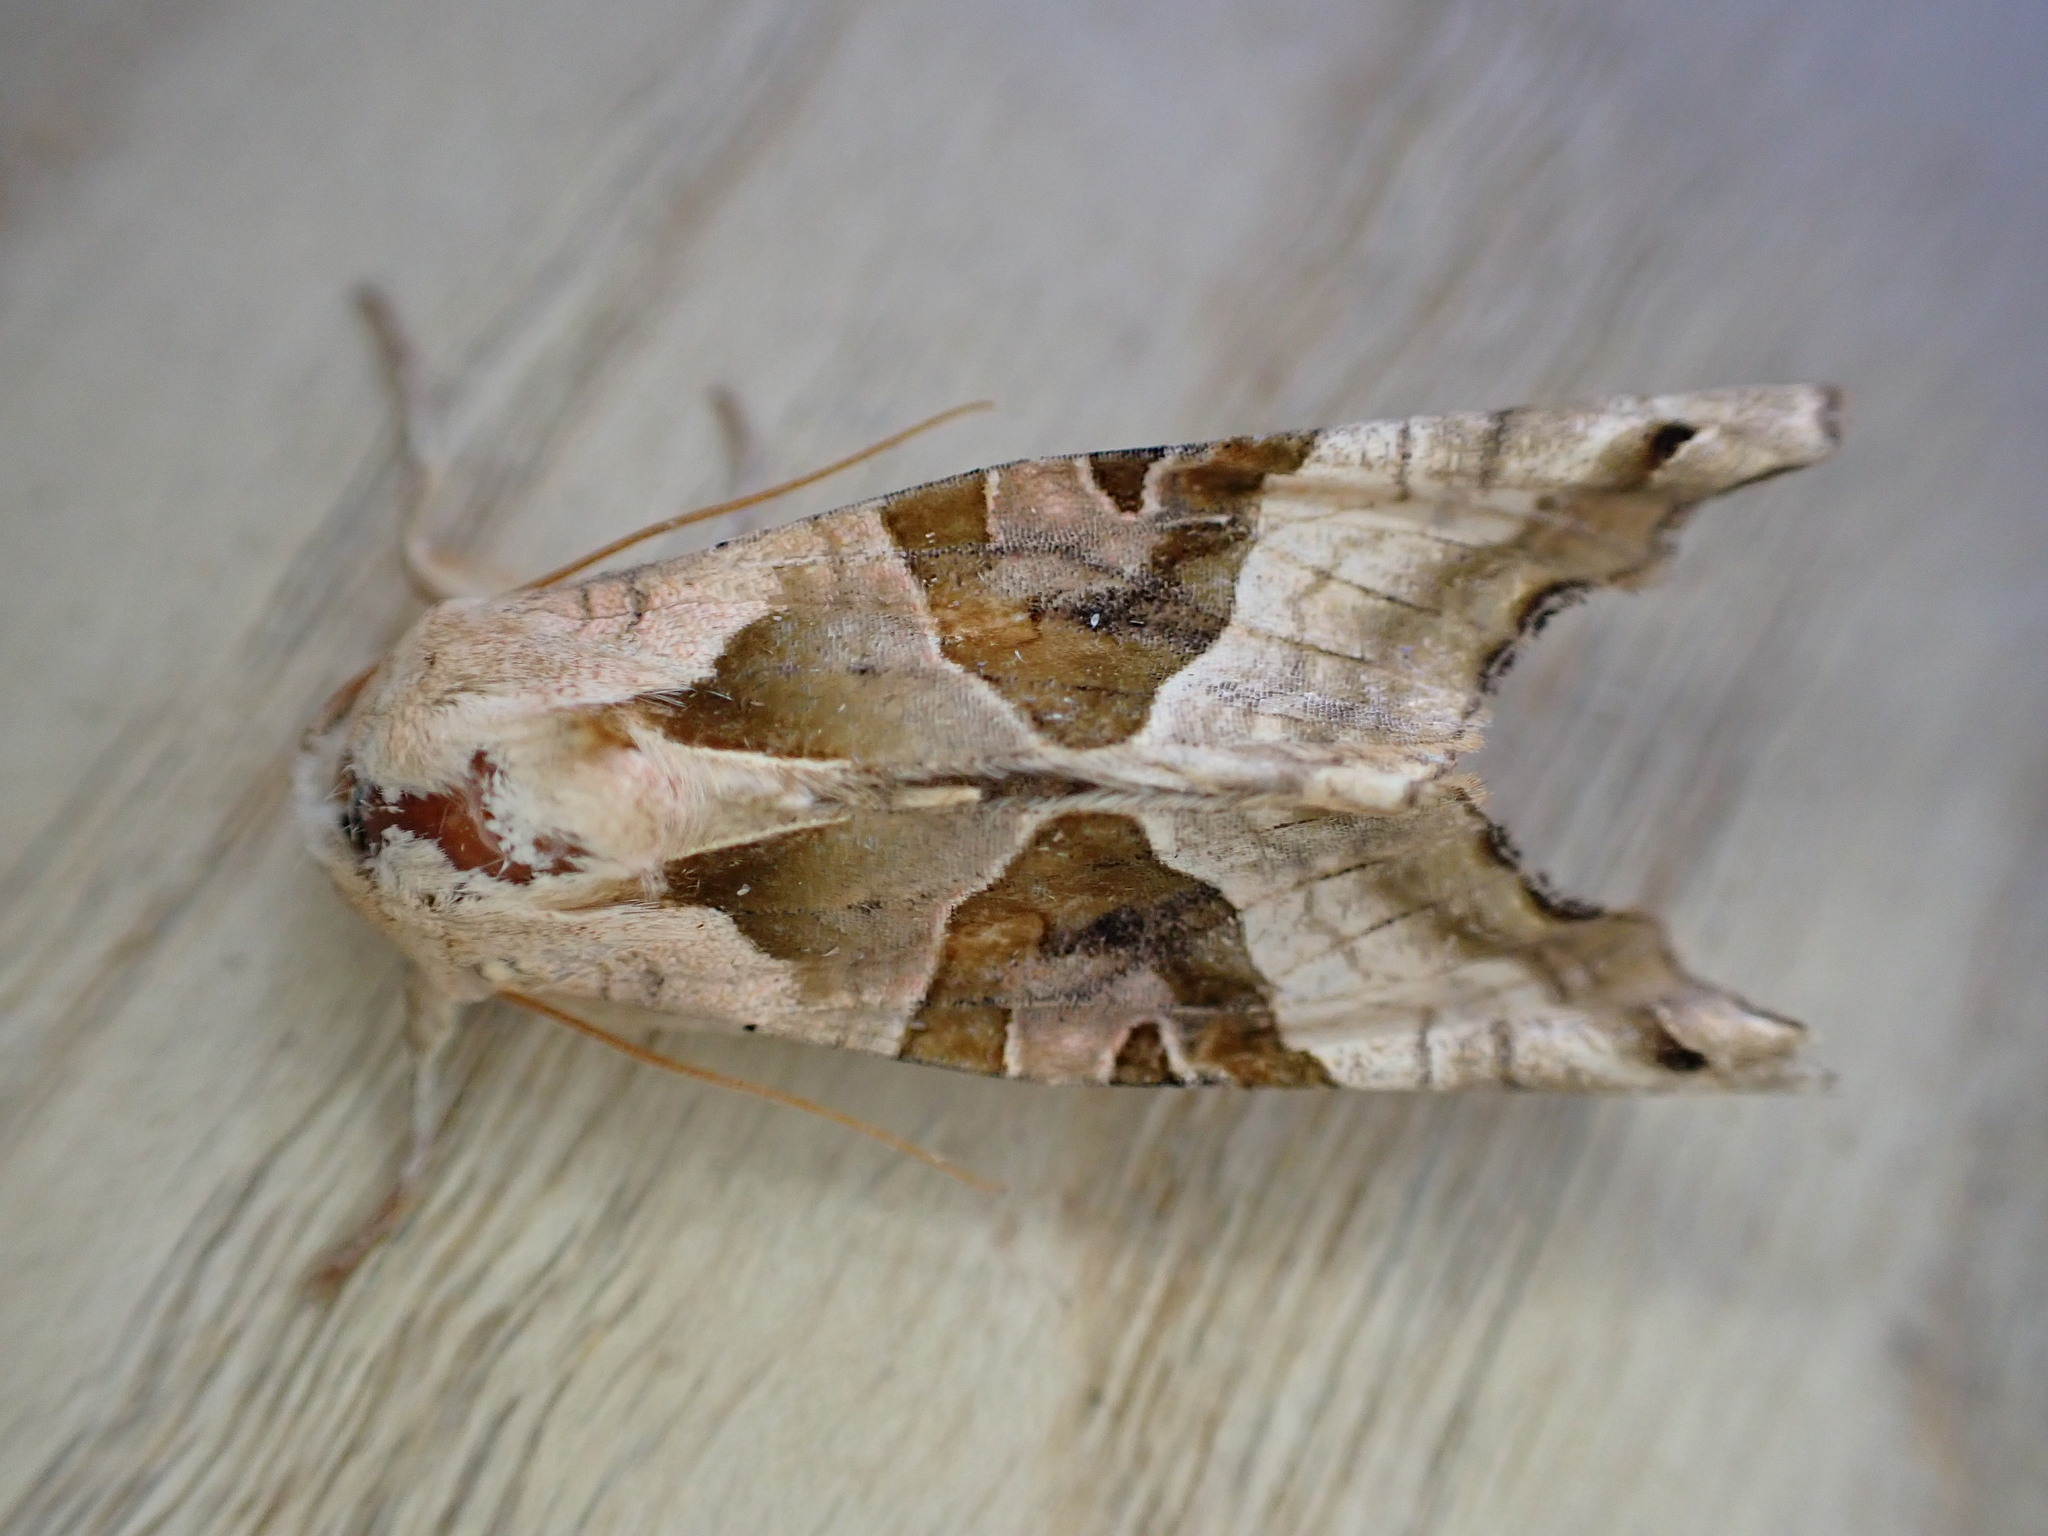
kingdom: Animalia
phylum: Arthropoda
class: Insecta
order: Lepidoptera
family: Noctuidae
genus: Phlogophora
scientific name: Phlogophora meticulosa
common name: Angle shades
